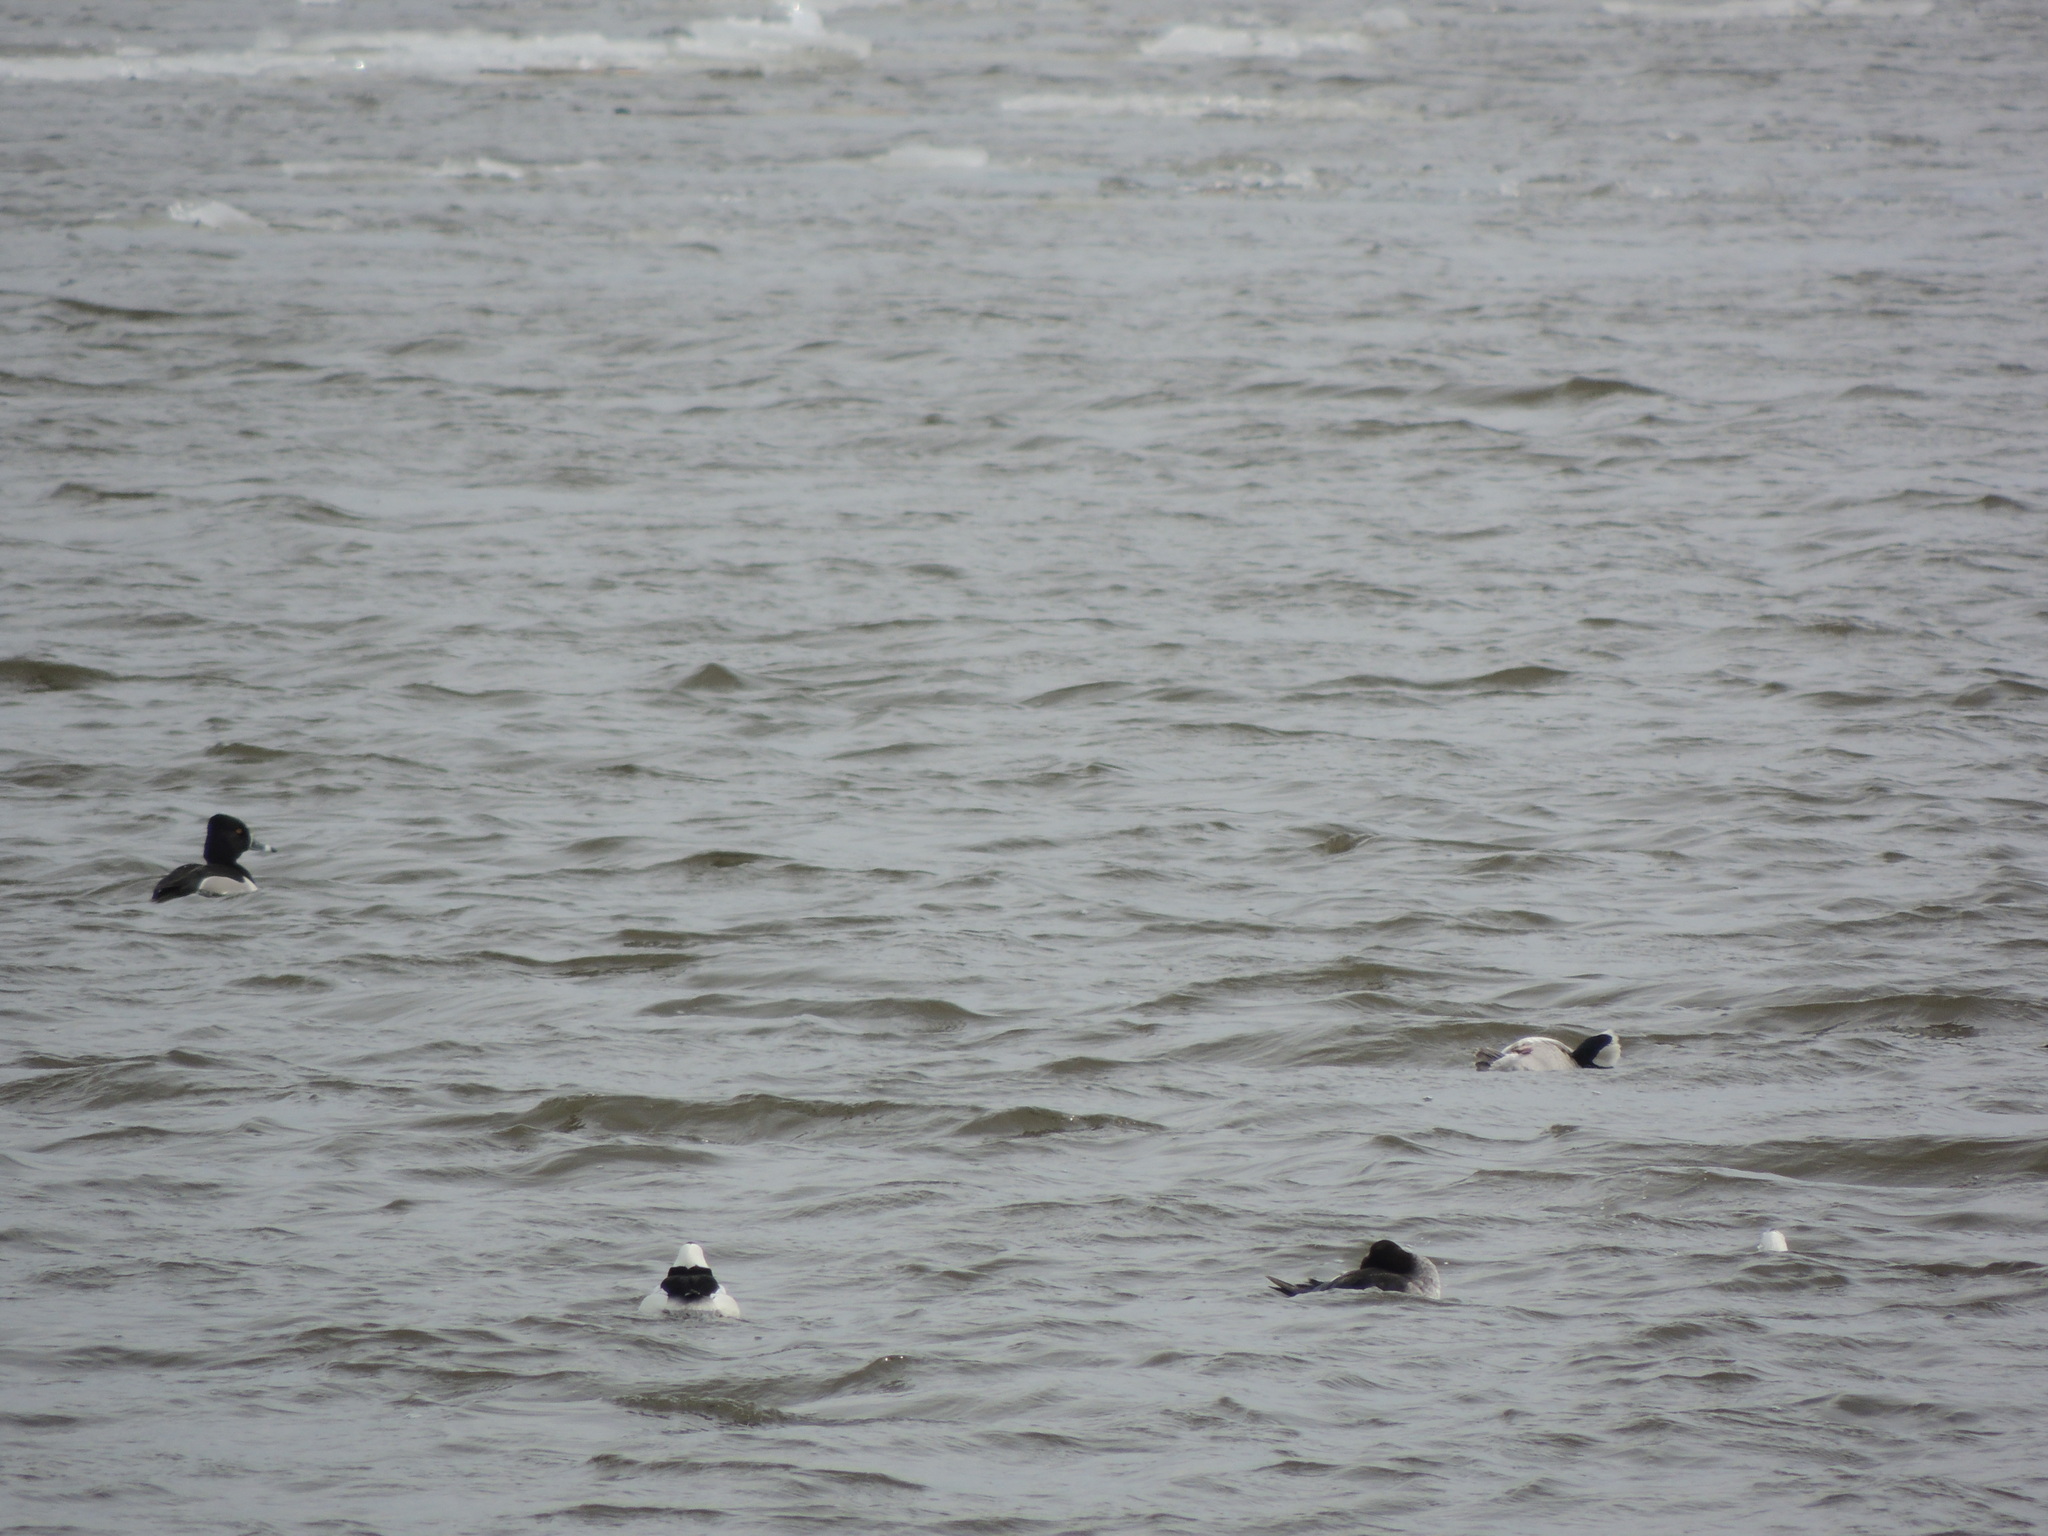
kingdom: Animalia
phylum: Chordata
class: Aves
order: Anseriformes
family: Anatidae
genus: Aythya
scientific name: Aythya collaris
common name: Ring-necked duck
